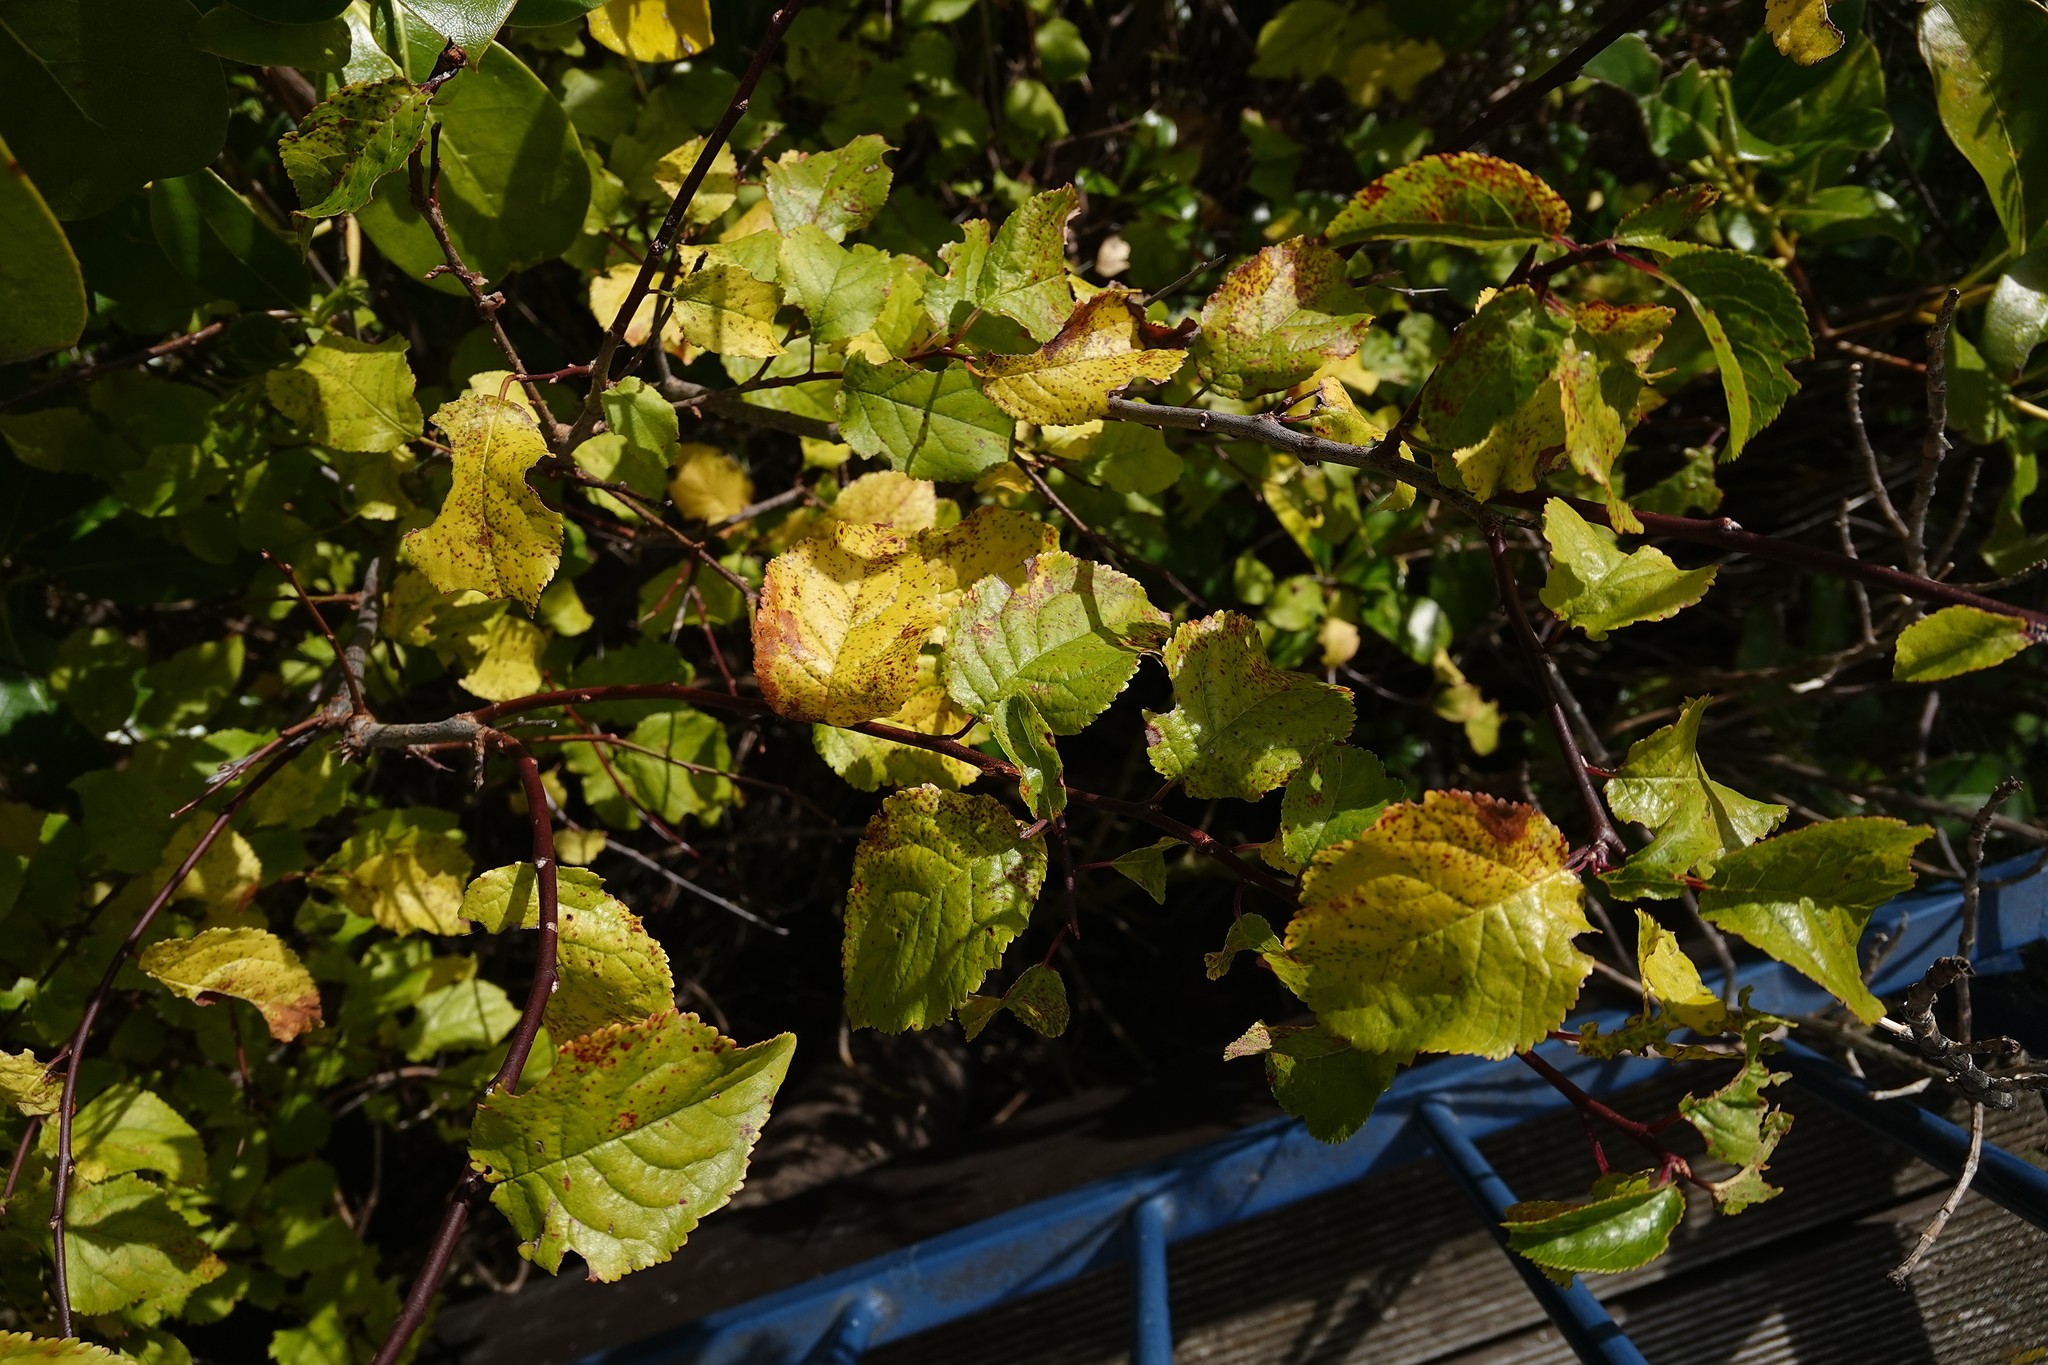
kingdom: Plantae
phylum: Tracheophyta
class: Magnoliopsida
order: Rosales
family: Rosaceae
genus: Malus
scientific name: Malus domestica
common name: Apple
